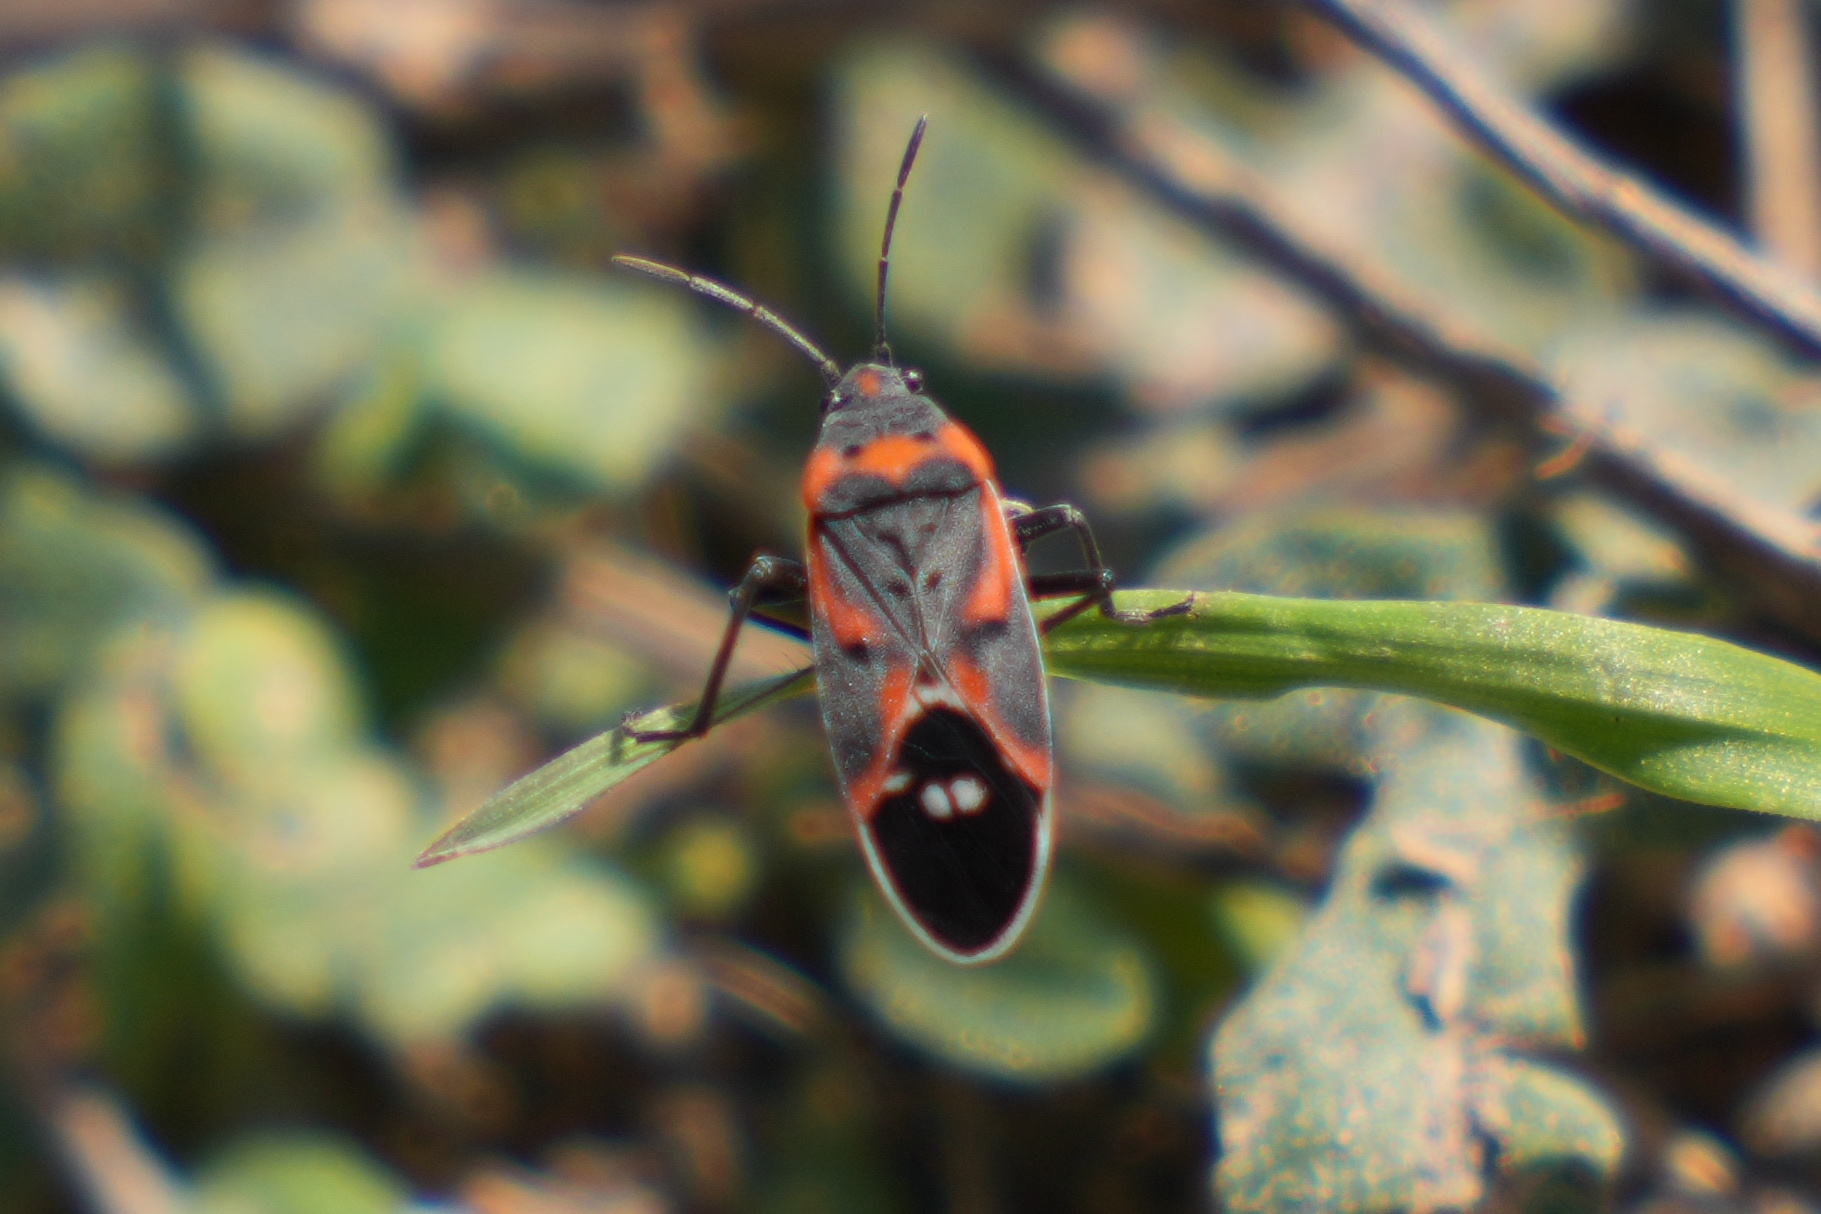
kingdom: Animalia
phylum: Arthropoda
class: Insecta
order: Hemiptera
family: Lygaeidae
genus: Lygaeus
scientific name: Lygaeus kalmii
